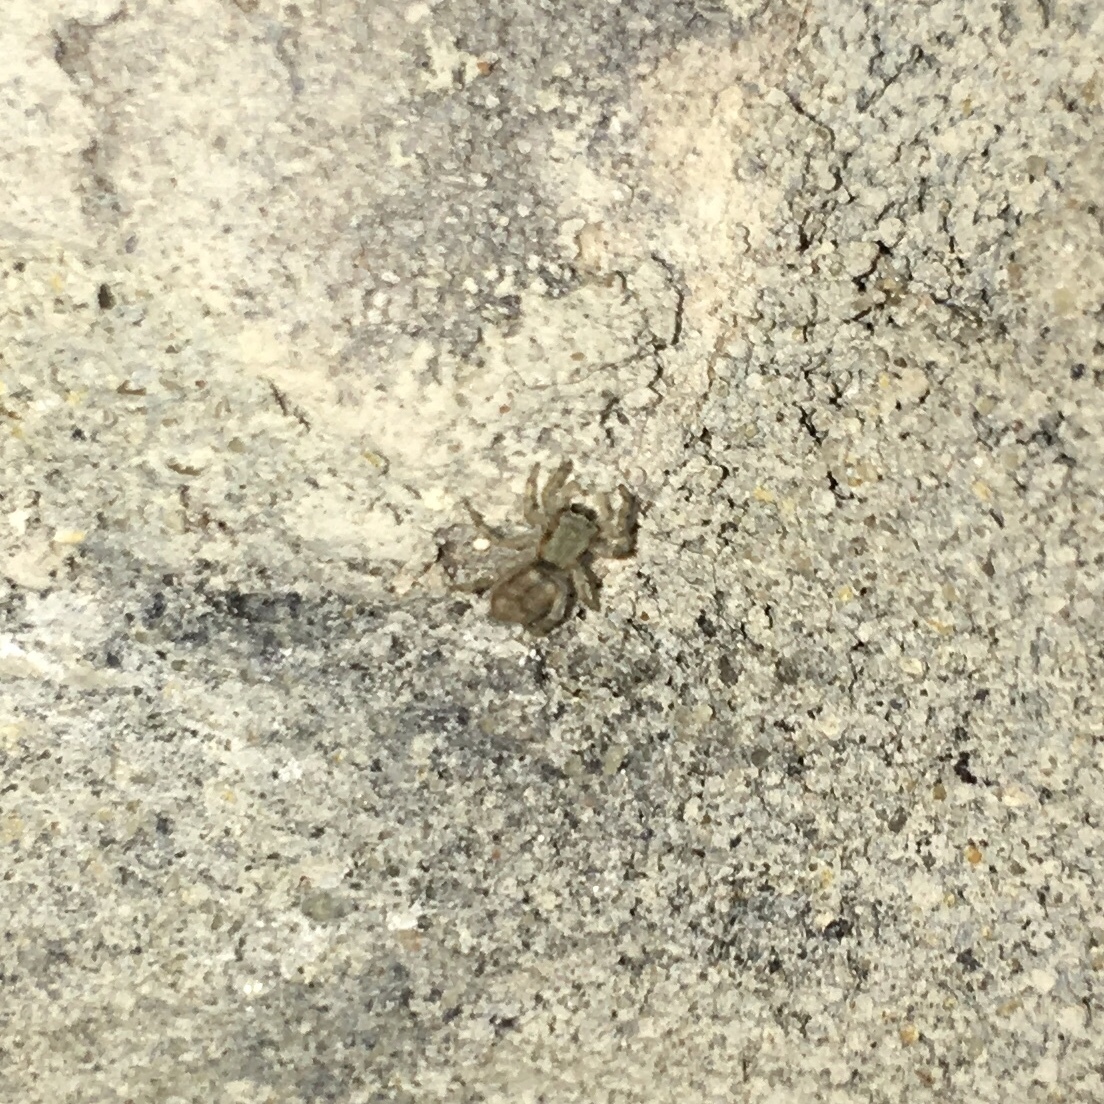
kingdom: Animalia
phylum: Arthropoda
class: Arachnida
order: Araneae
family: Salticidae
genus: Menemerus
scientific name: Menemerus bivittatus
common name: Gray wall jumper
